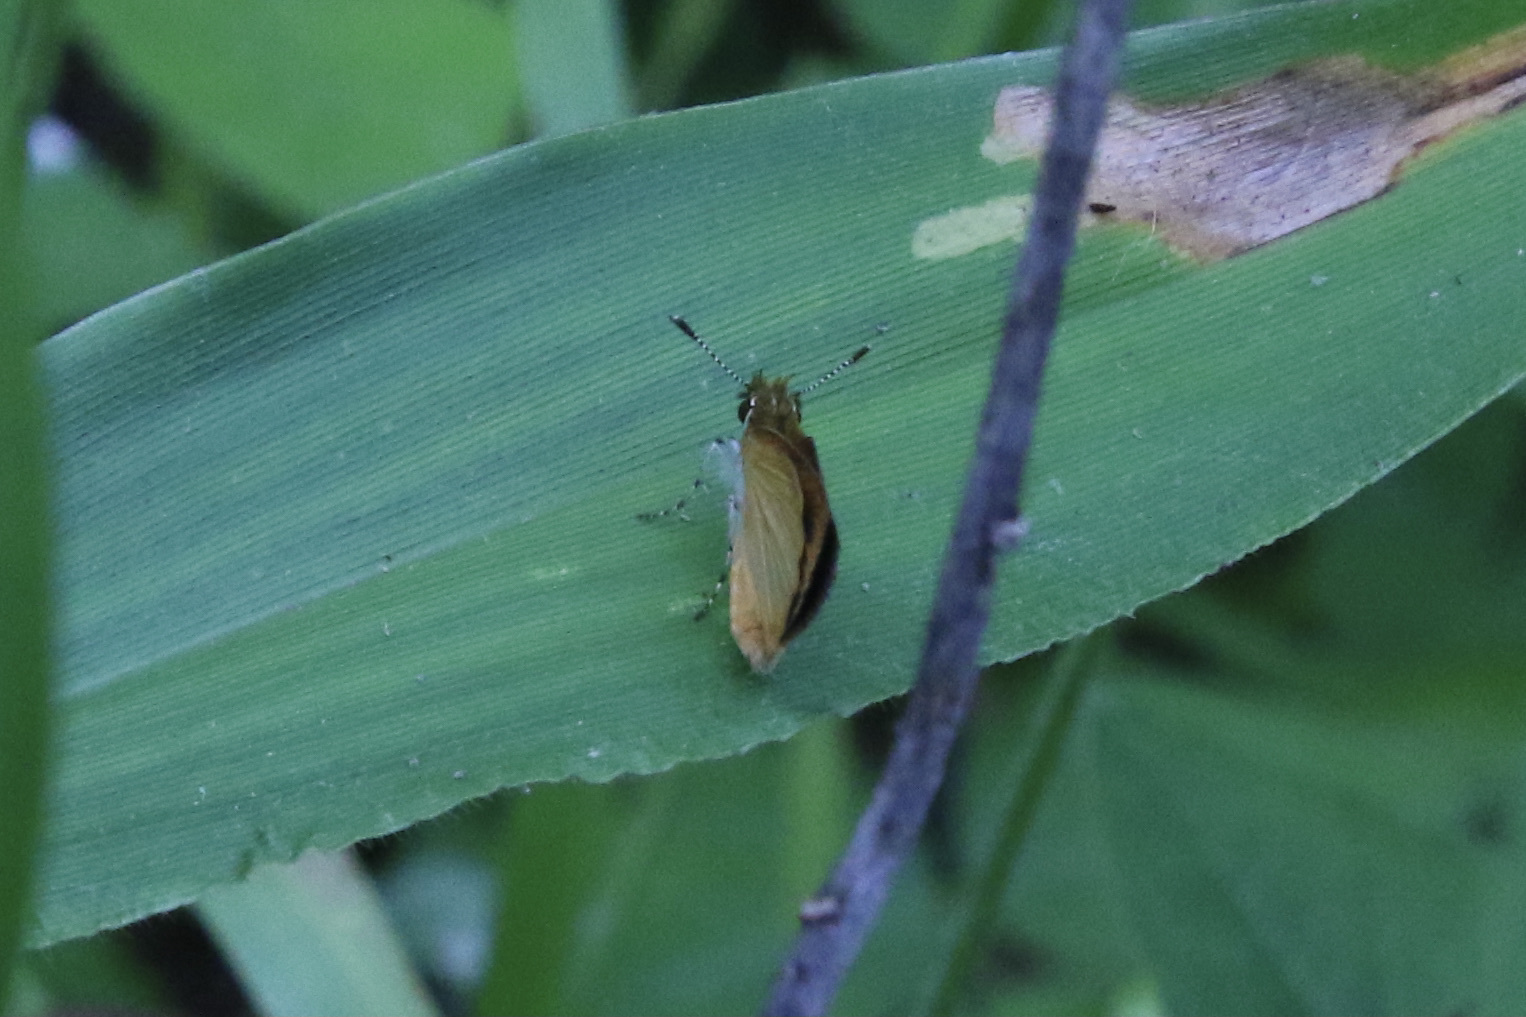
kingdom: Animalia
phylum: Arthropoda
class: Insecta
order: Lepidoptera
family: Hesperiidae
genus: Ancyloxypha
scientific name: Ancyloxypha numitor
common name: Least skipper
